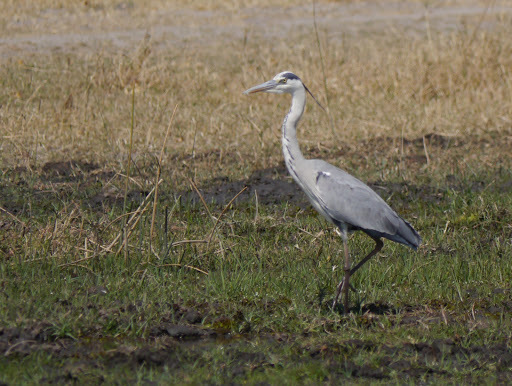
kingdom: Animalia
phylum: Chordata
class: Aves
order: Pelecaniformes
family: Ardeidae
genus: Ardea
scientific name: Ardea cinerea
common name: Grey heron
